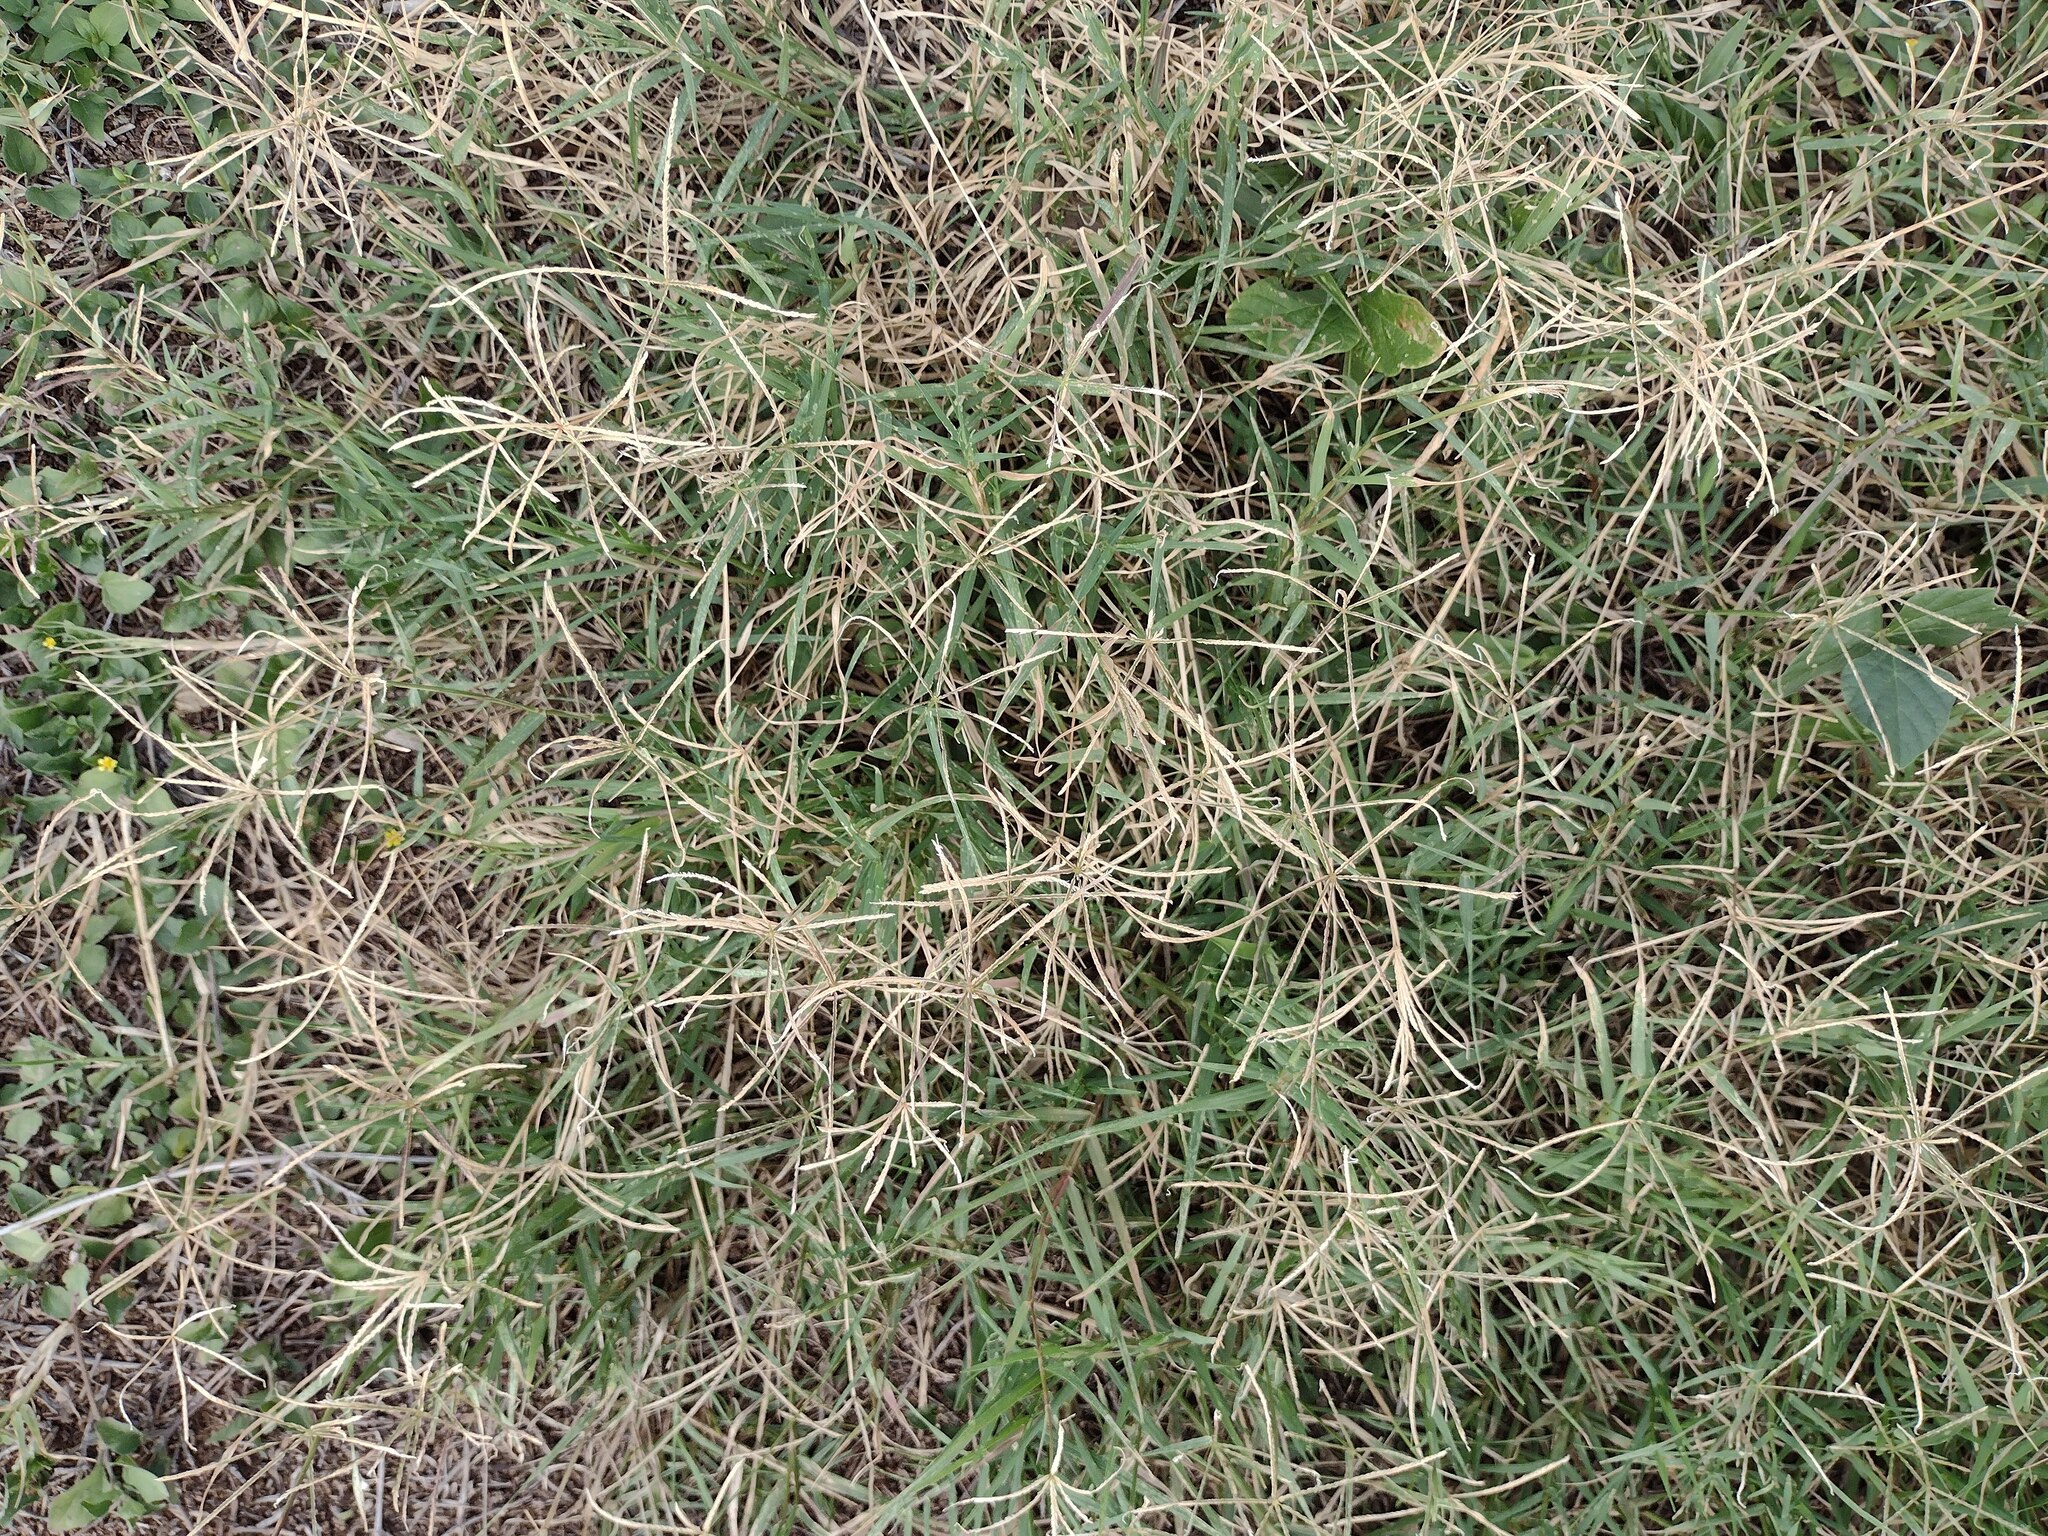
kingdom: Plantae
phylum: Tracheophyta
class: Liliopsida
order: Poales
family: Poaceae
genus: Cynodon
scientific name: Cynodon dactylon
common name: Bermuda grass
